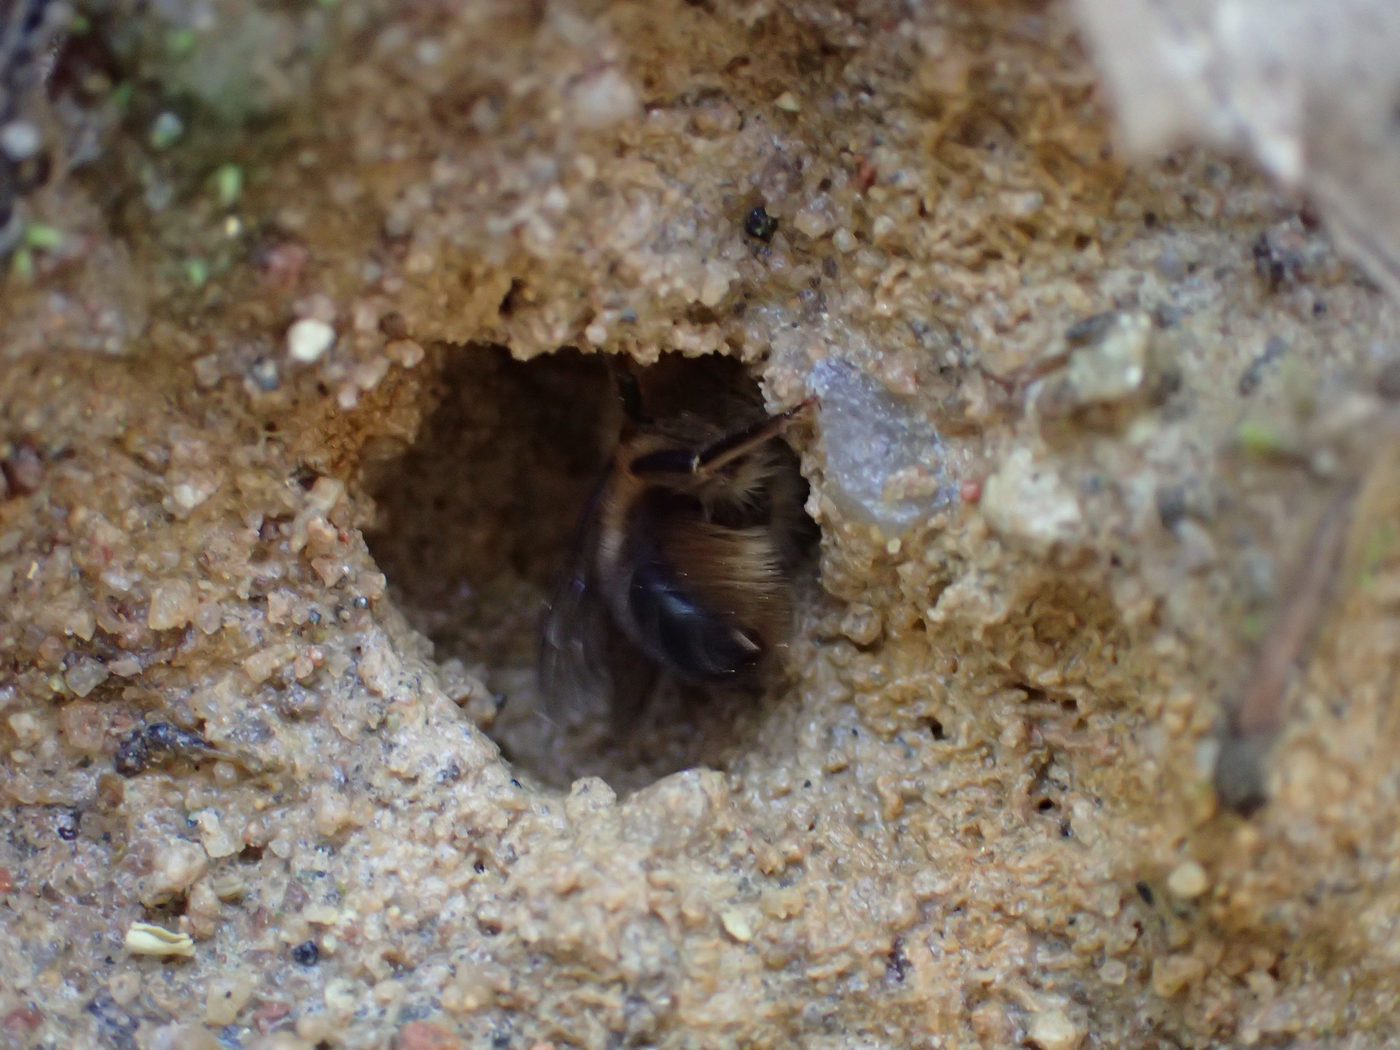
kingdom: Animalia
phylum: Arthropoda
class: Insecta
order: Hymenoptera
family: Megachilidae
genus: Osmia
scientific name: Osmia taurus
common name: Taurus mason bee
